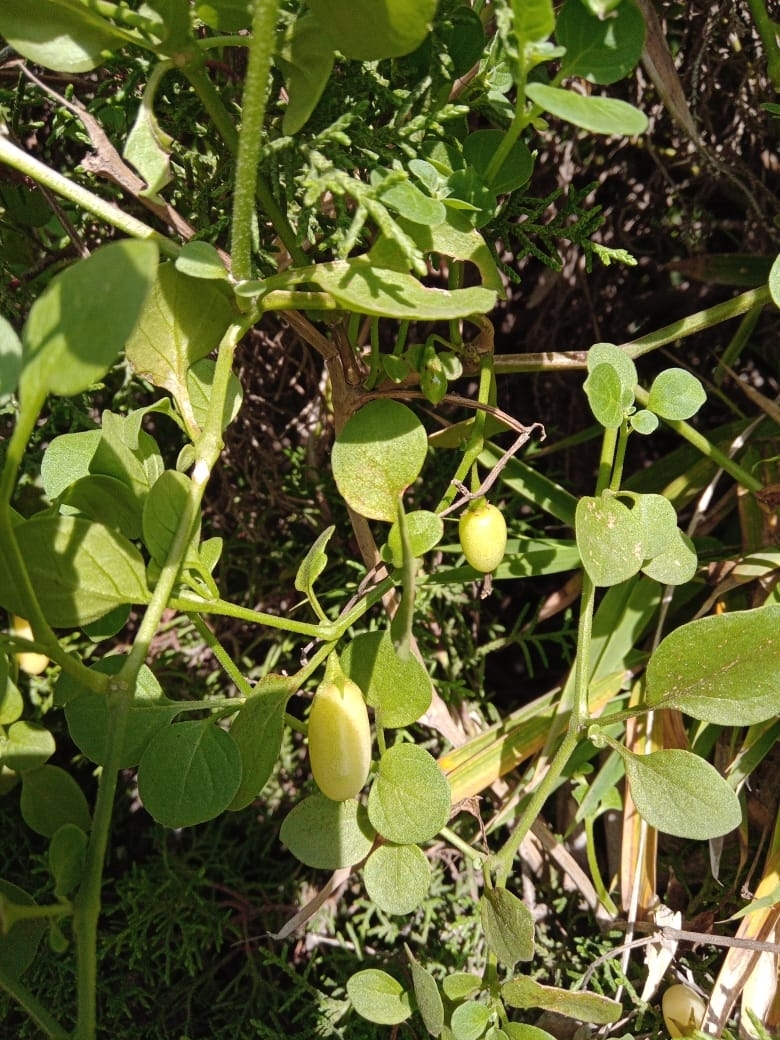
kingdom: Plantae
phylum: Tracheophyta
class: Magnoliopsida
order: Solanales
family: Solanaceae
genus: Salpichroa
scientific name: Salpichroa origanifolia
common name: Lily-of-the-valley-vine
